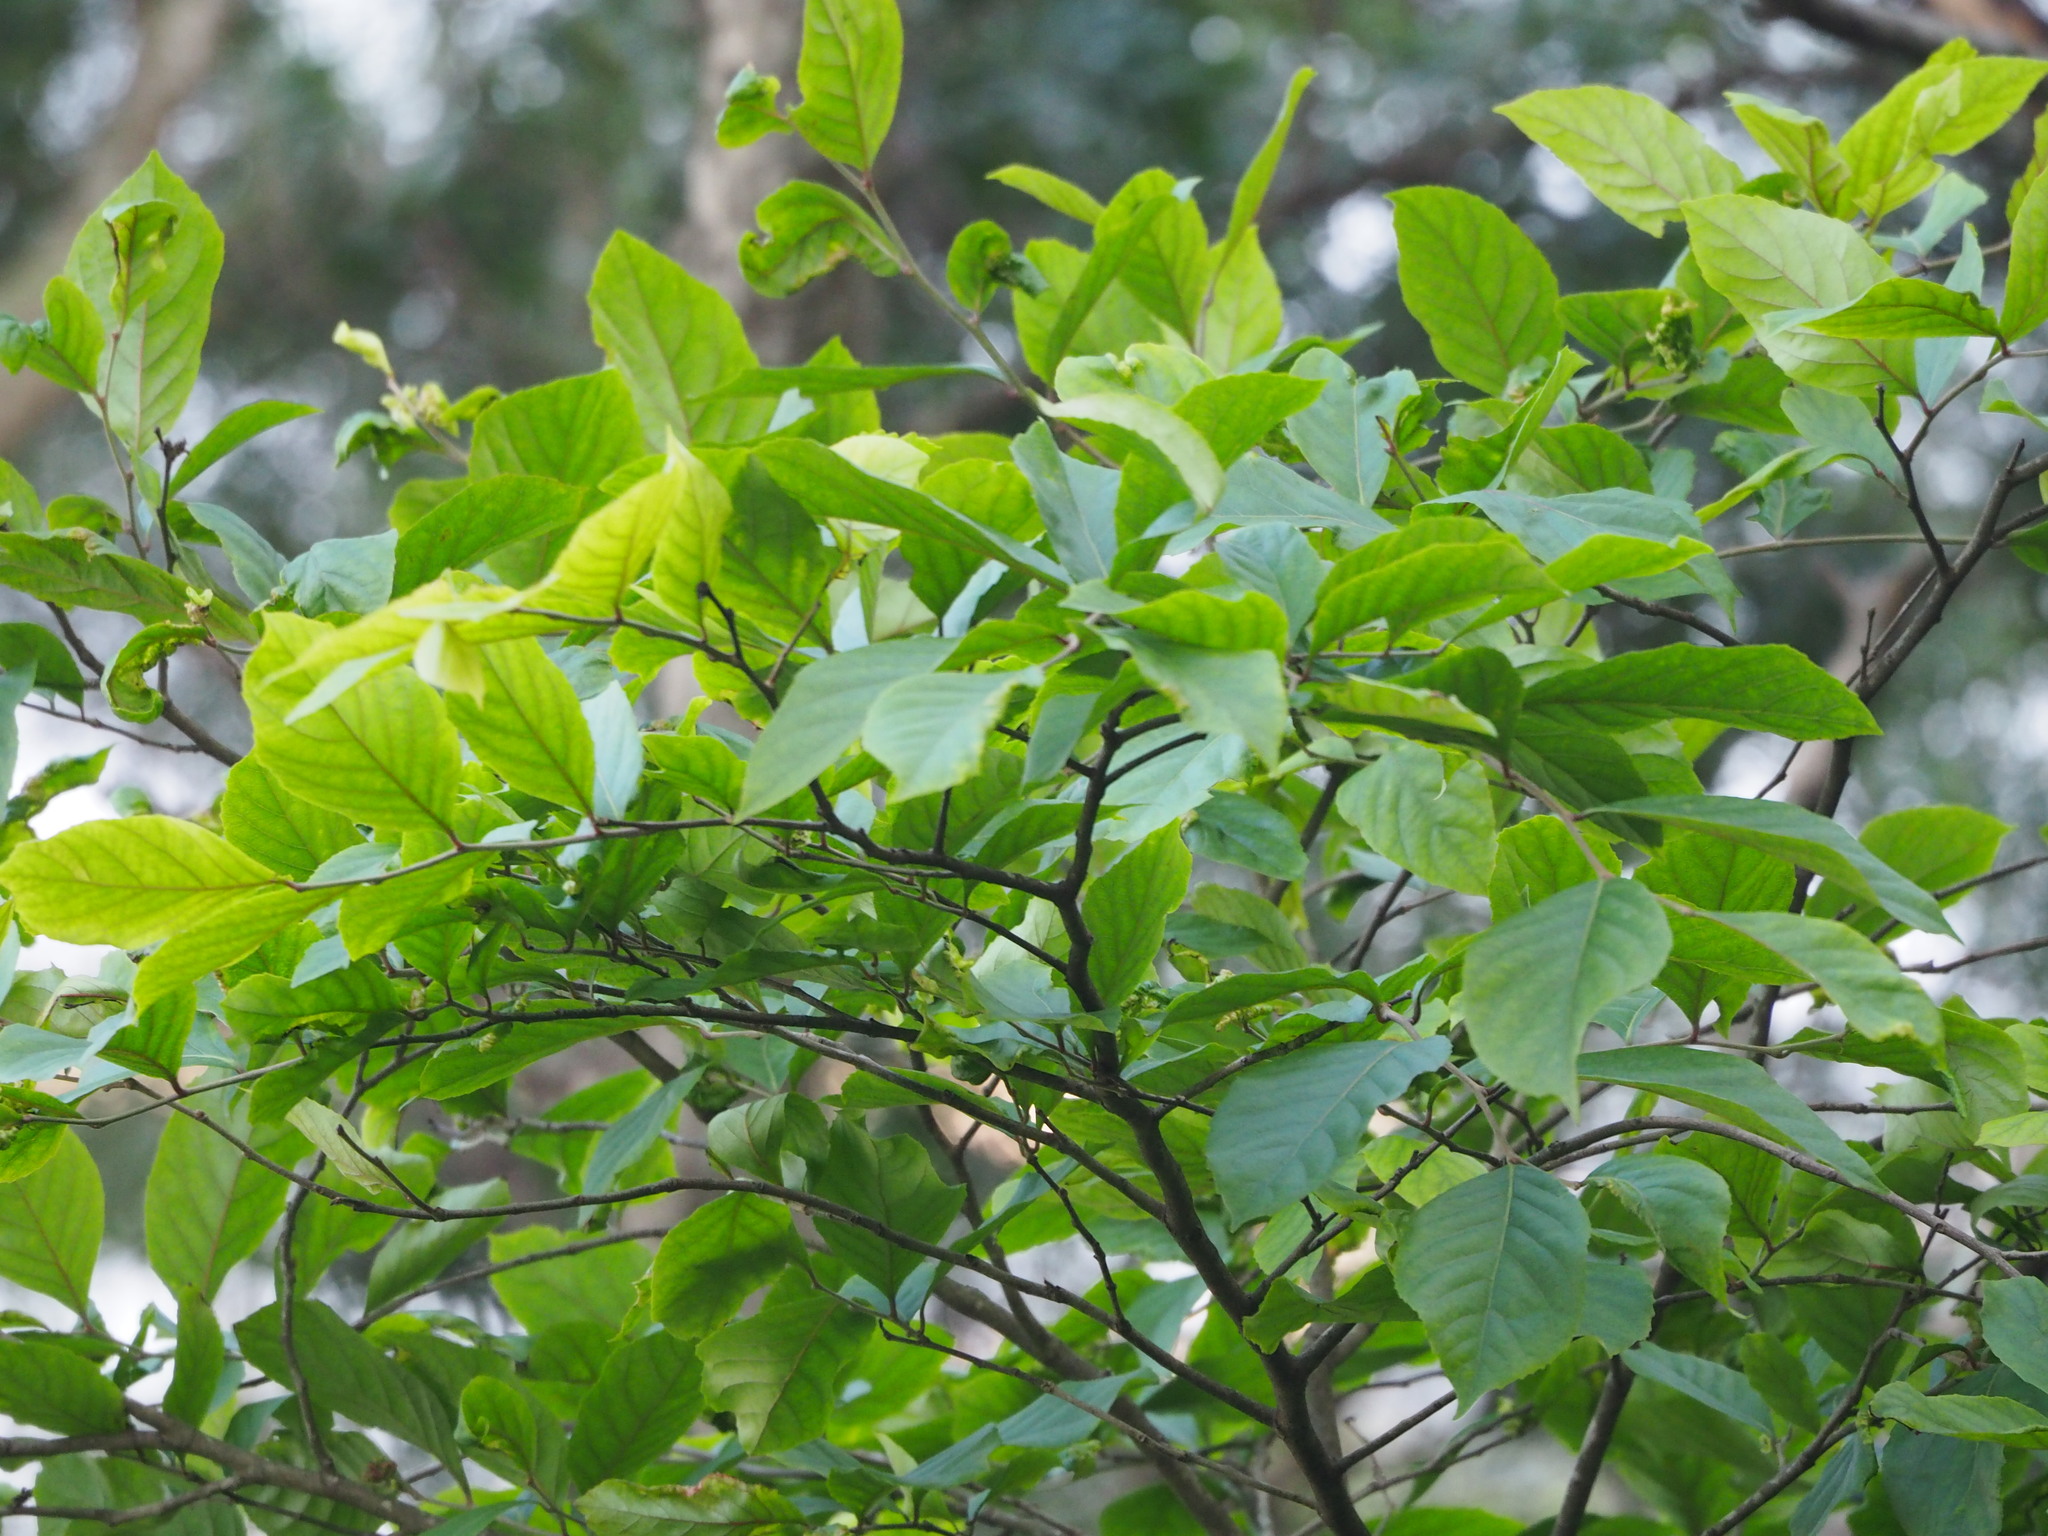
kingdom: Plantae
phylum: Tracheophyta
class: Magnoliopsida
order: Malpighiales
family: Salicaceae
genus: Homalium
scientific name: Homalium cochinchinensis
